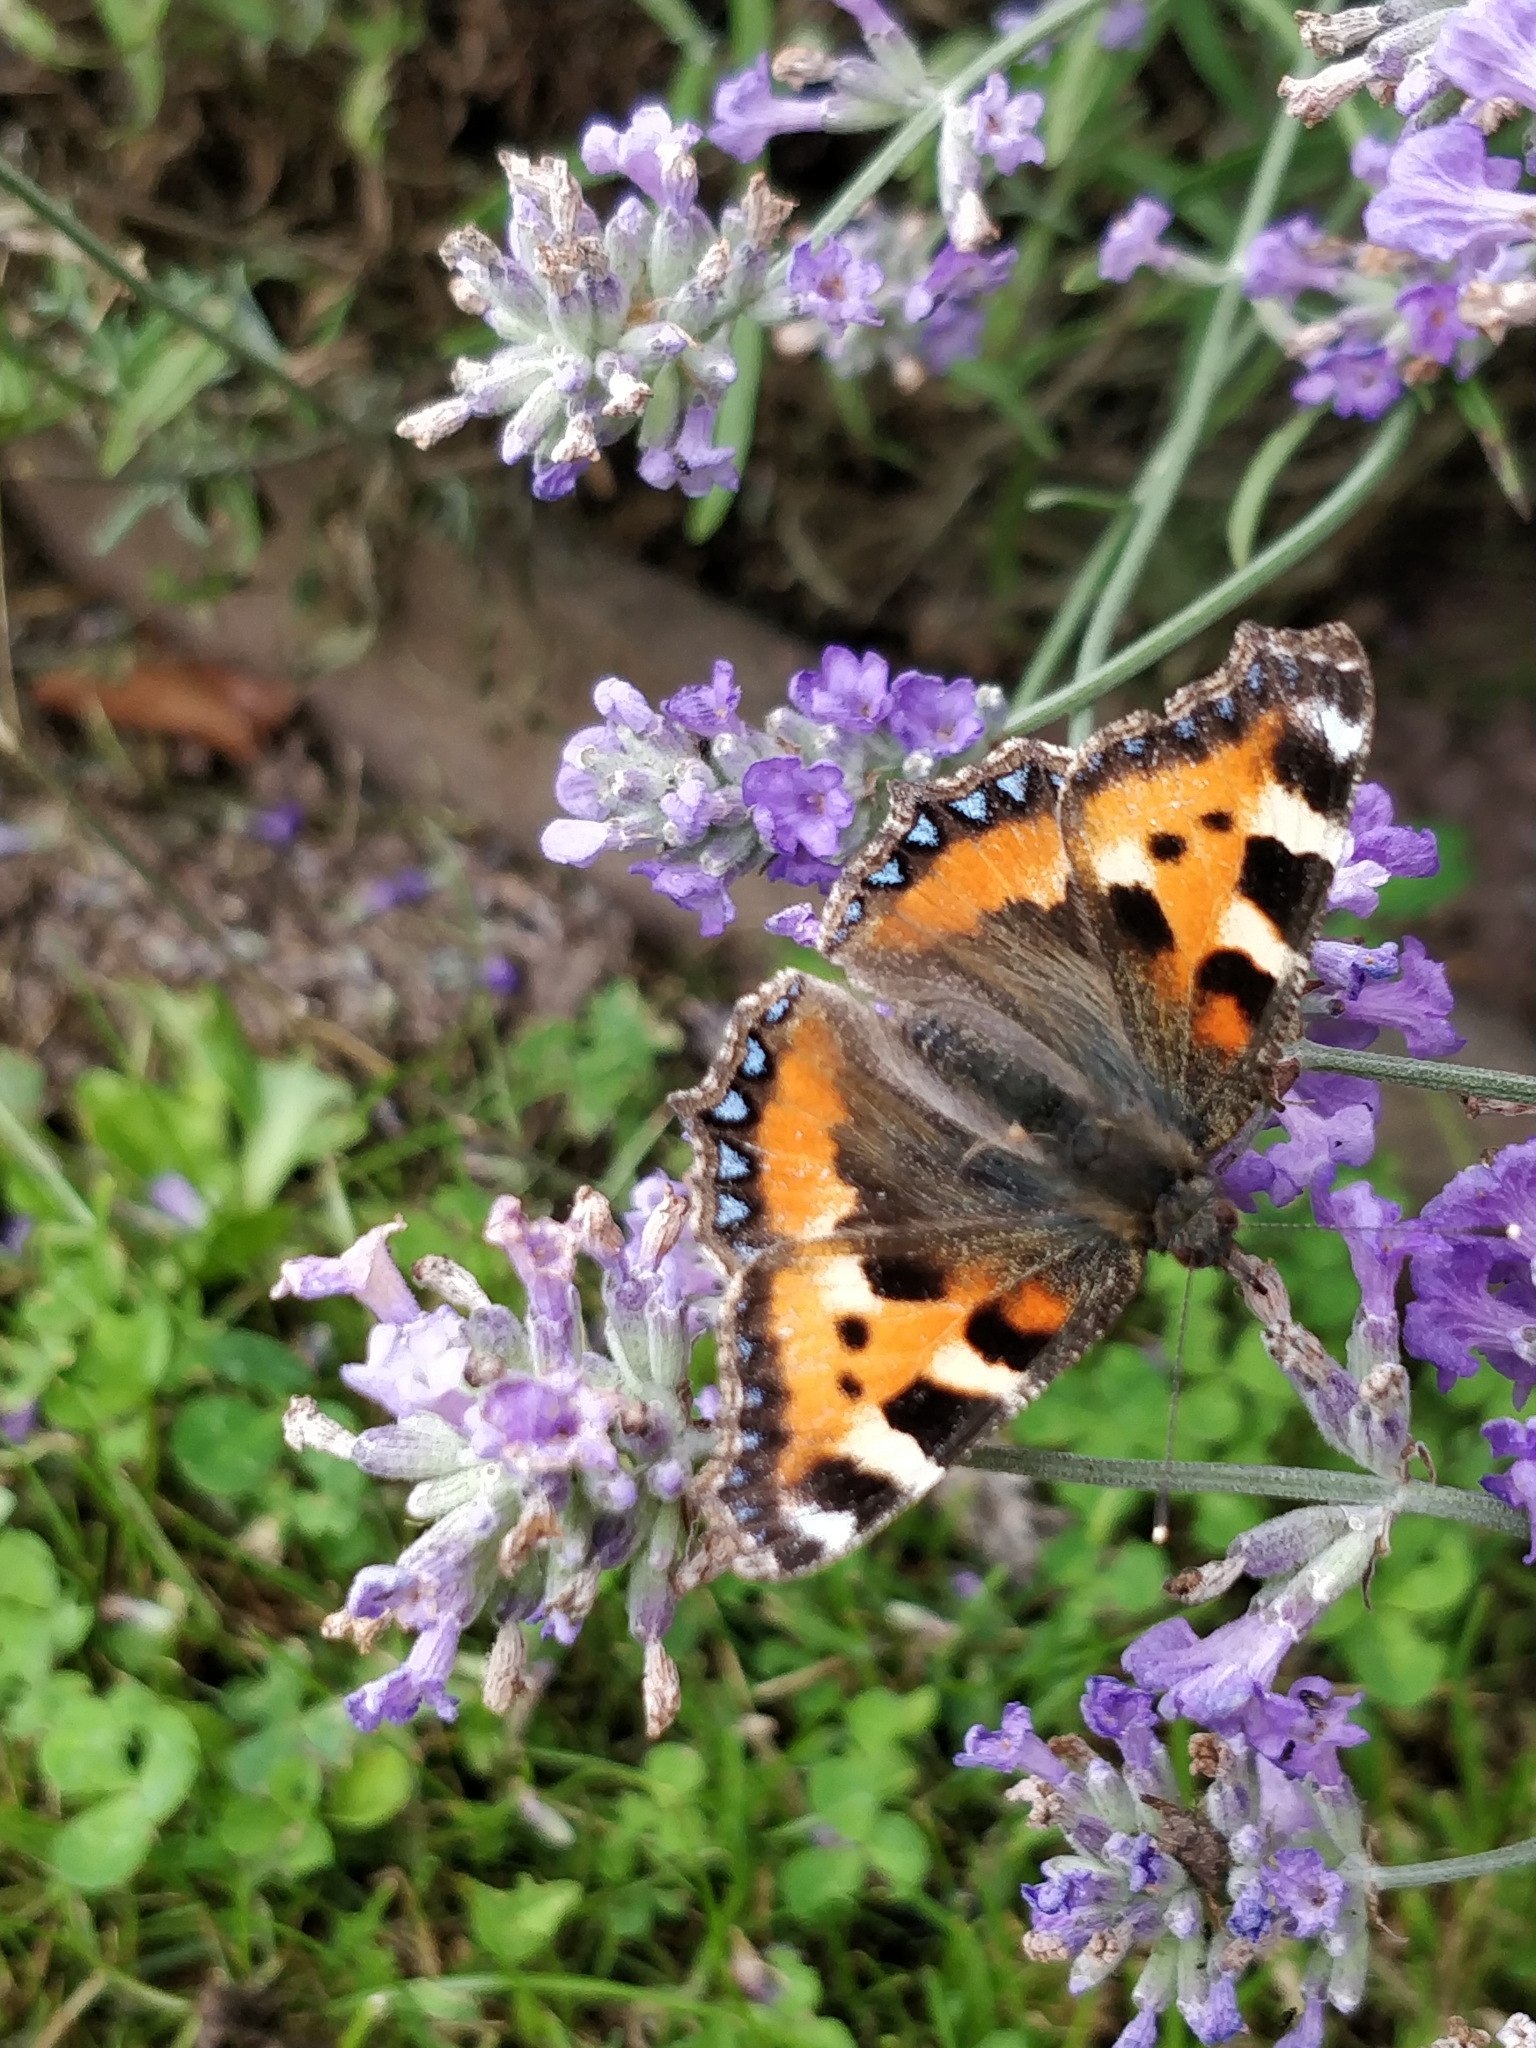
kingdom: Animalia
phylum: Arthropoda
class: Insecta
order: Lepidoptera
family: Nymphalidae
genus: Aglais
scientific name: Aglais urticae
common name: Small tortoiseshell
